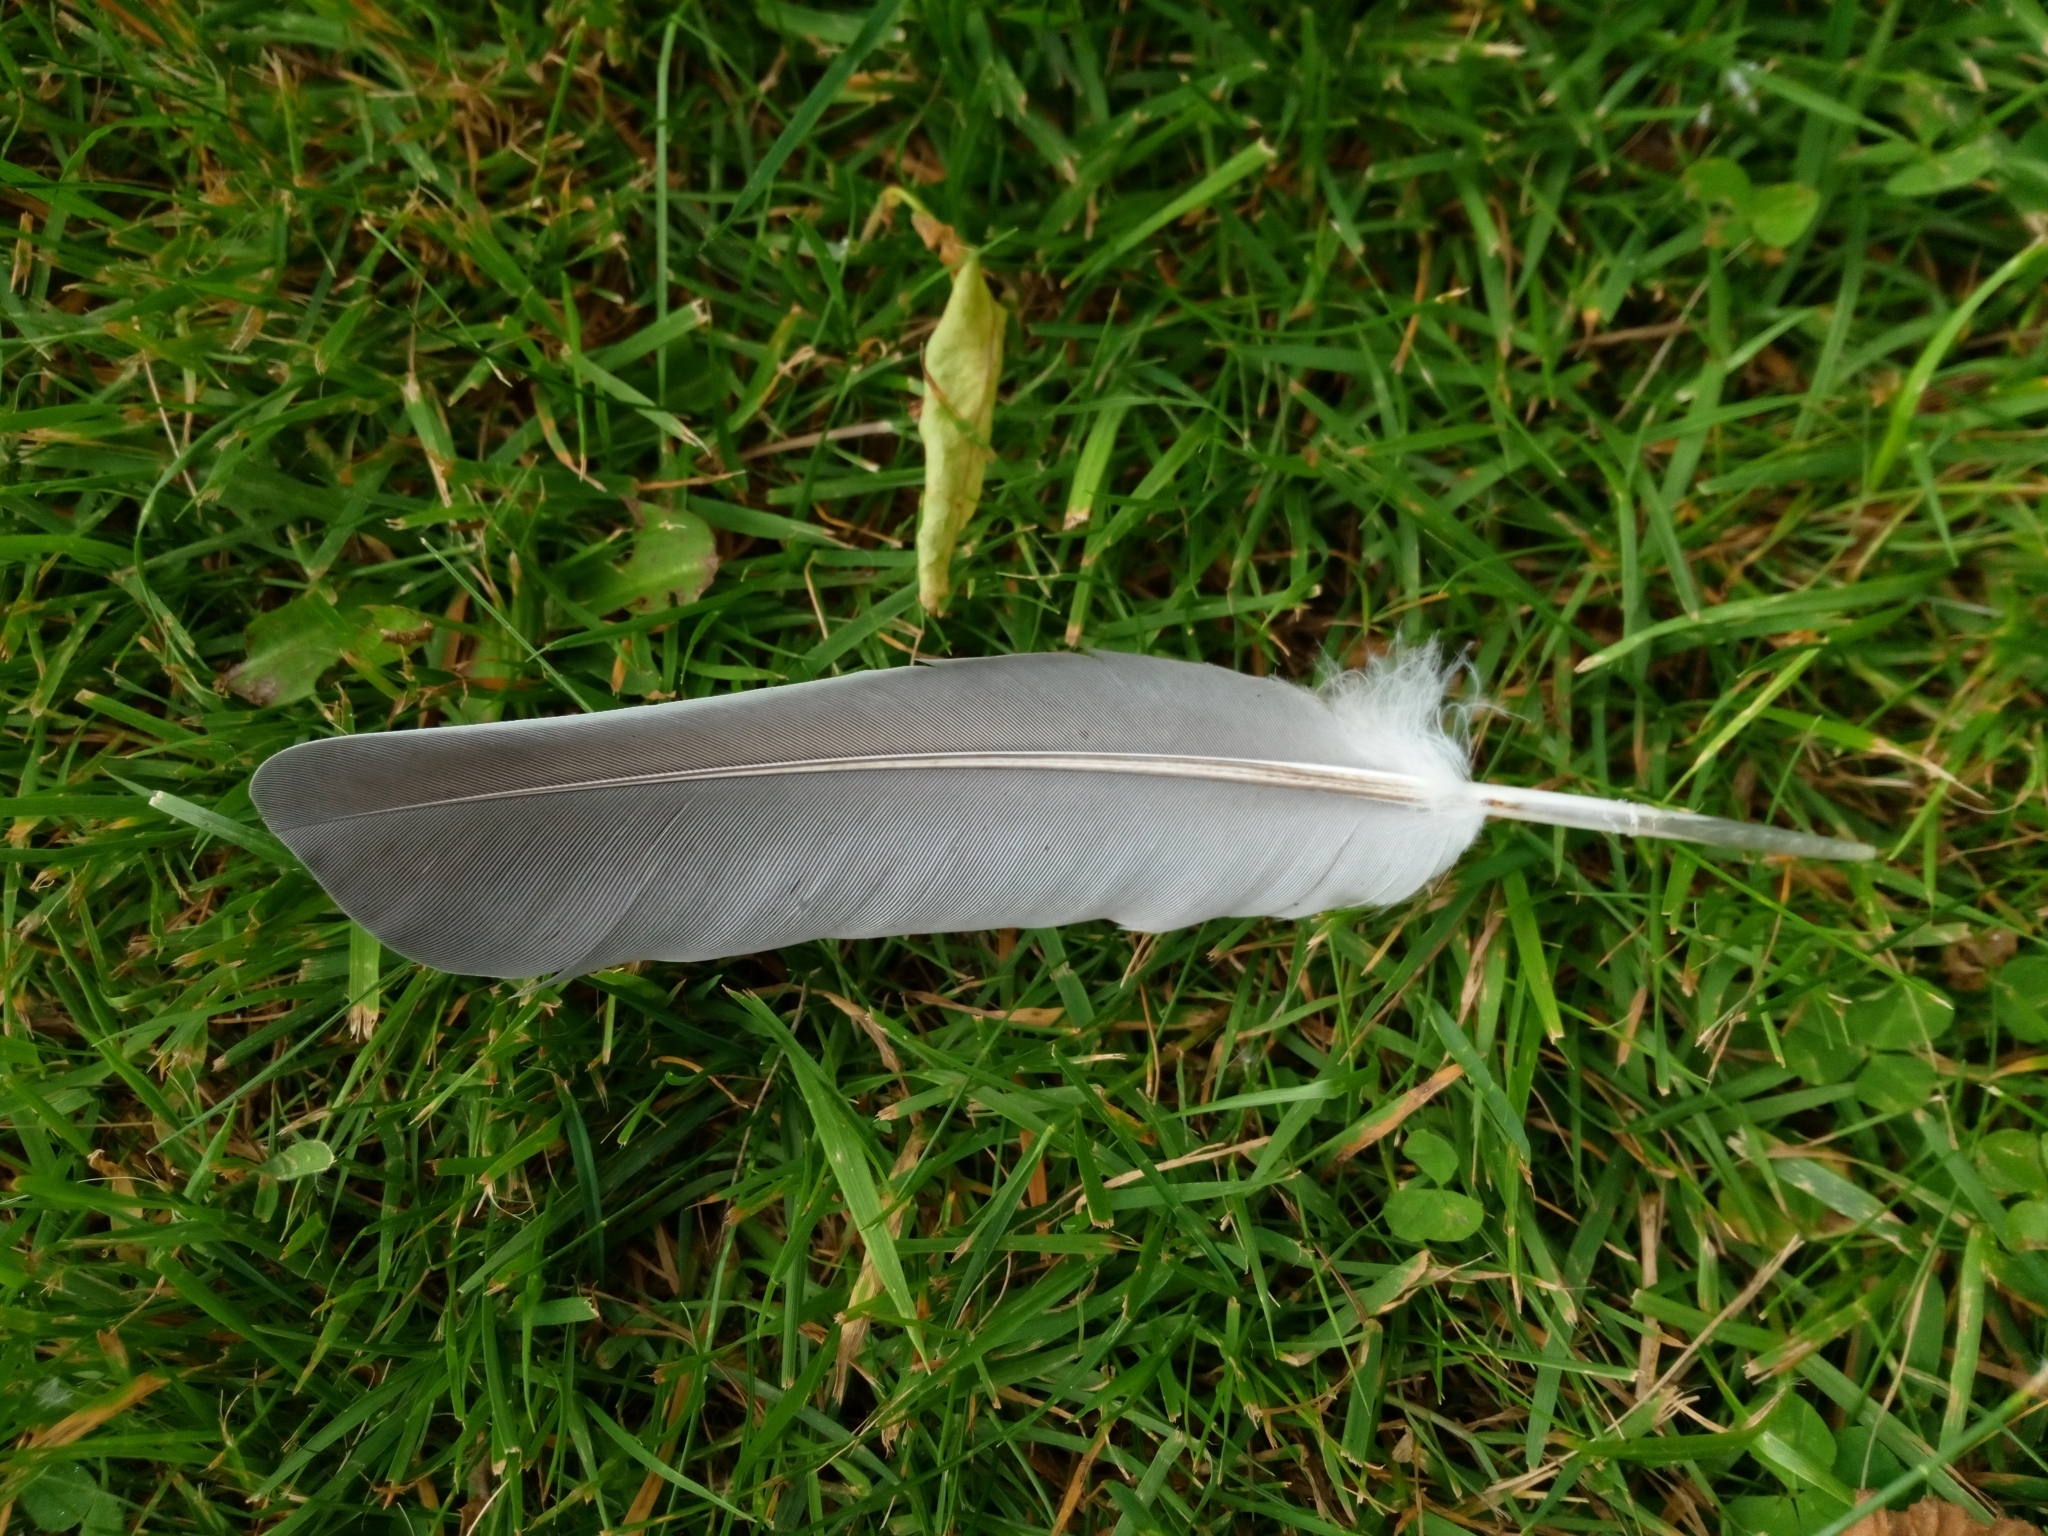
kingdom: Animalia
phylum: Chordata
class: Aves
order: Columbiformes
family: Columbidae
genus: Columba
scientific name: Columba palumbus
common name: Common wood pigeon
